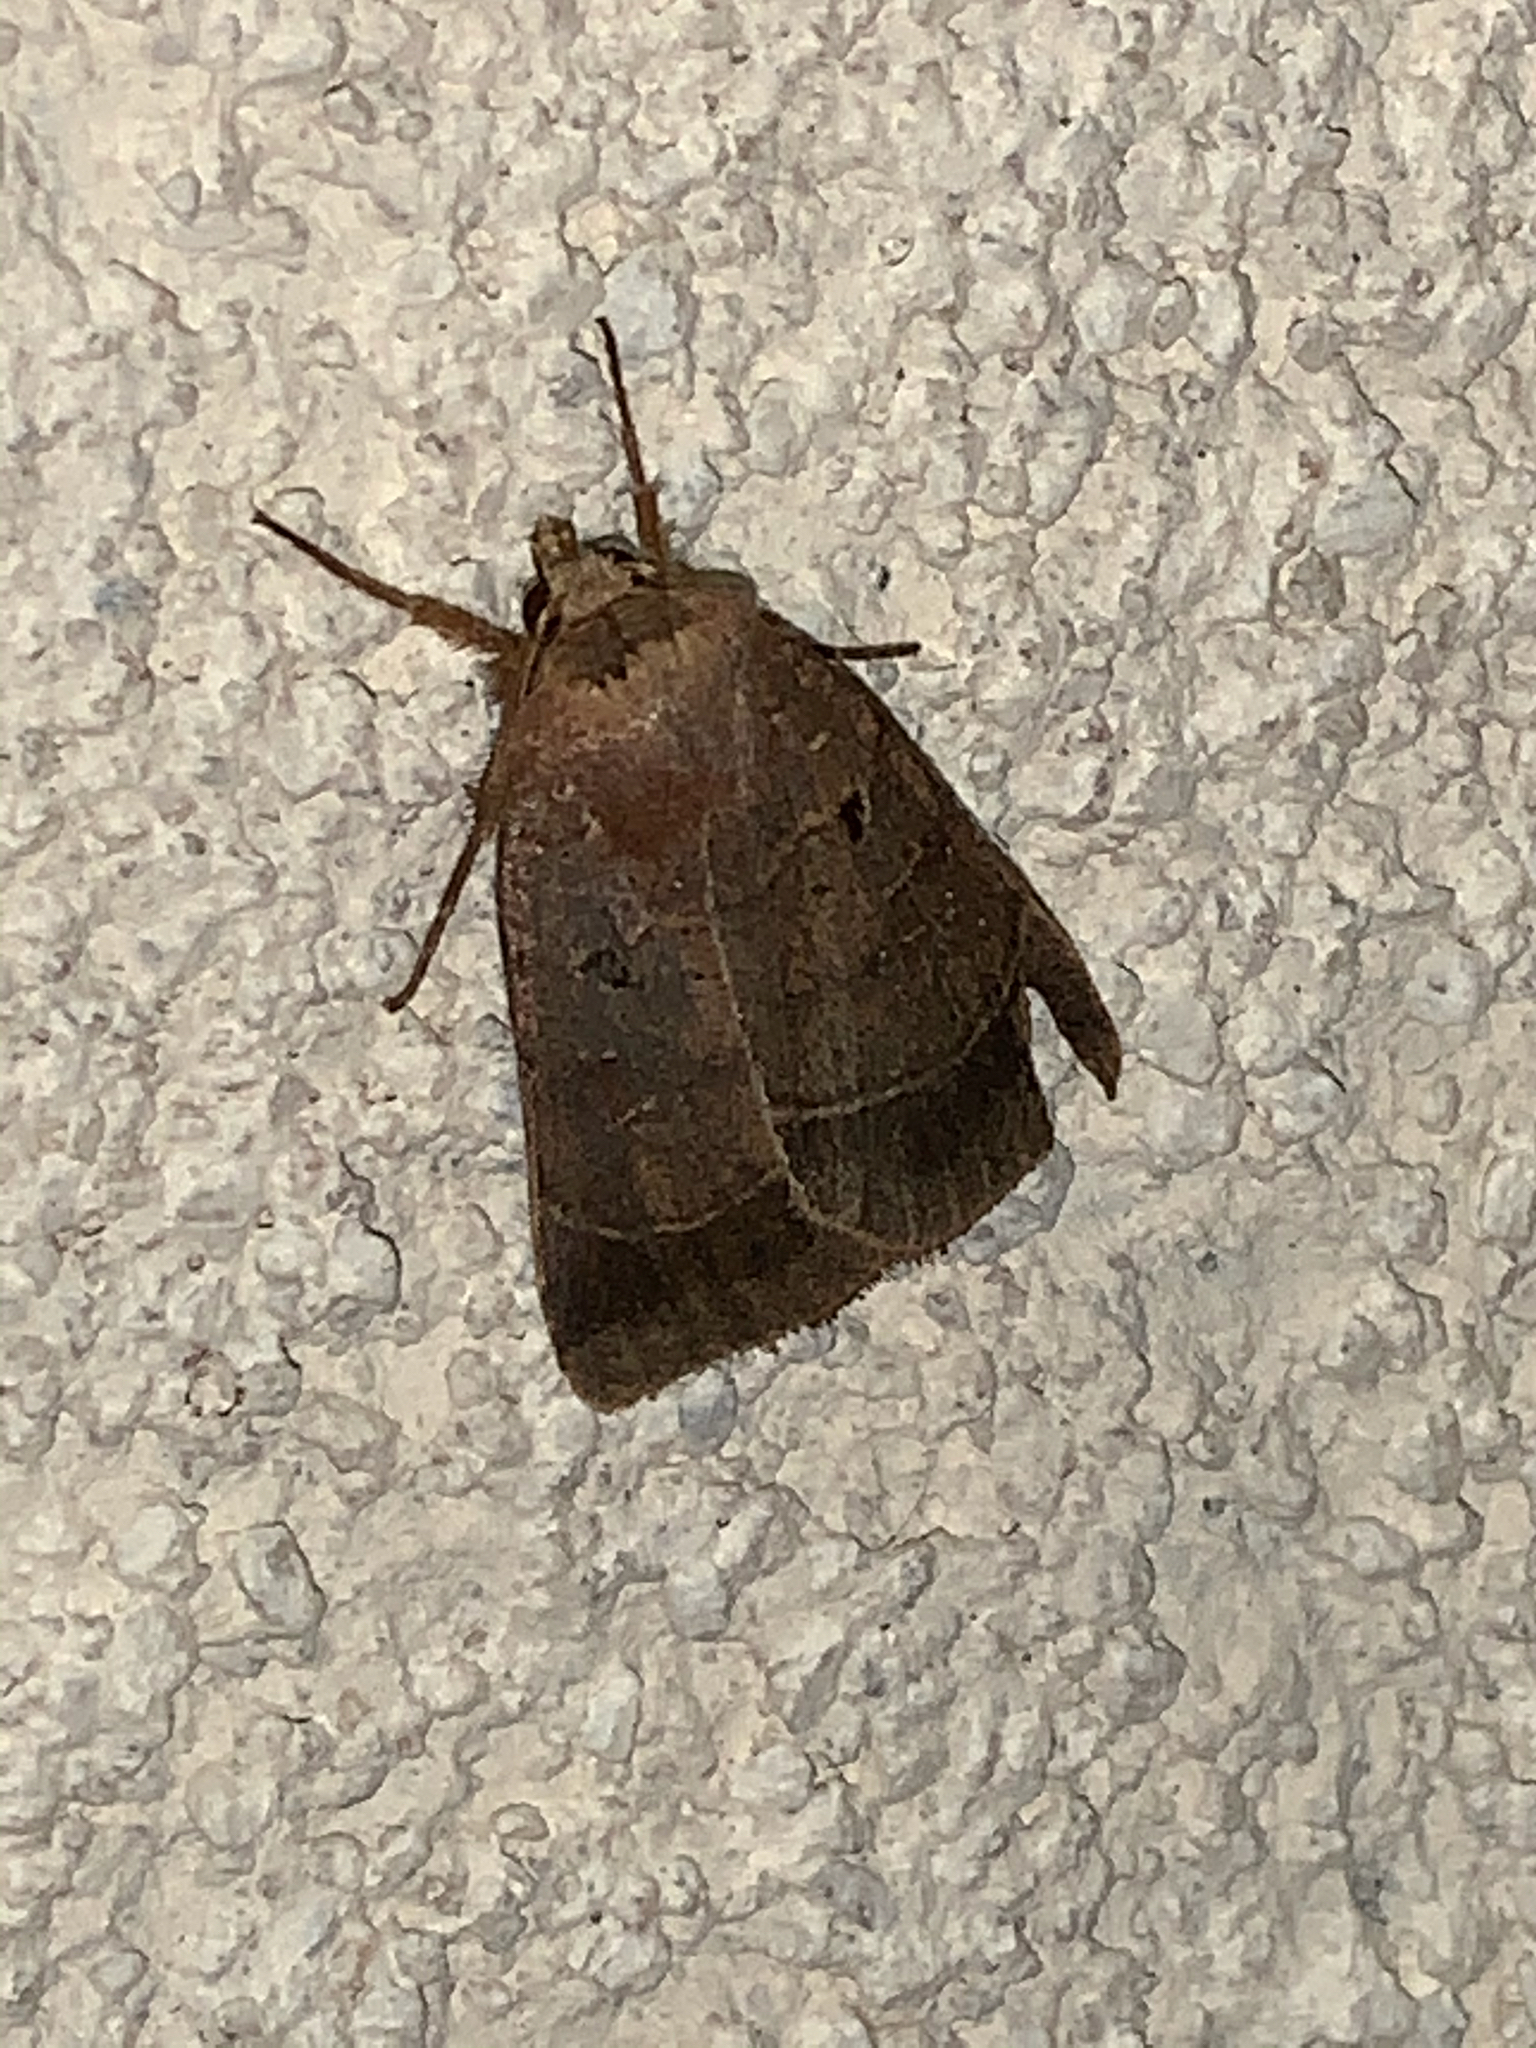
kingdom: Animalia
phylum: Arthropoda
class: Insecta
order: Lepidoptera
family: Noctuidae
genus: Agnorisma
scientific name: Agnorisma badinodis
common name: Pale-banded dart
